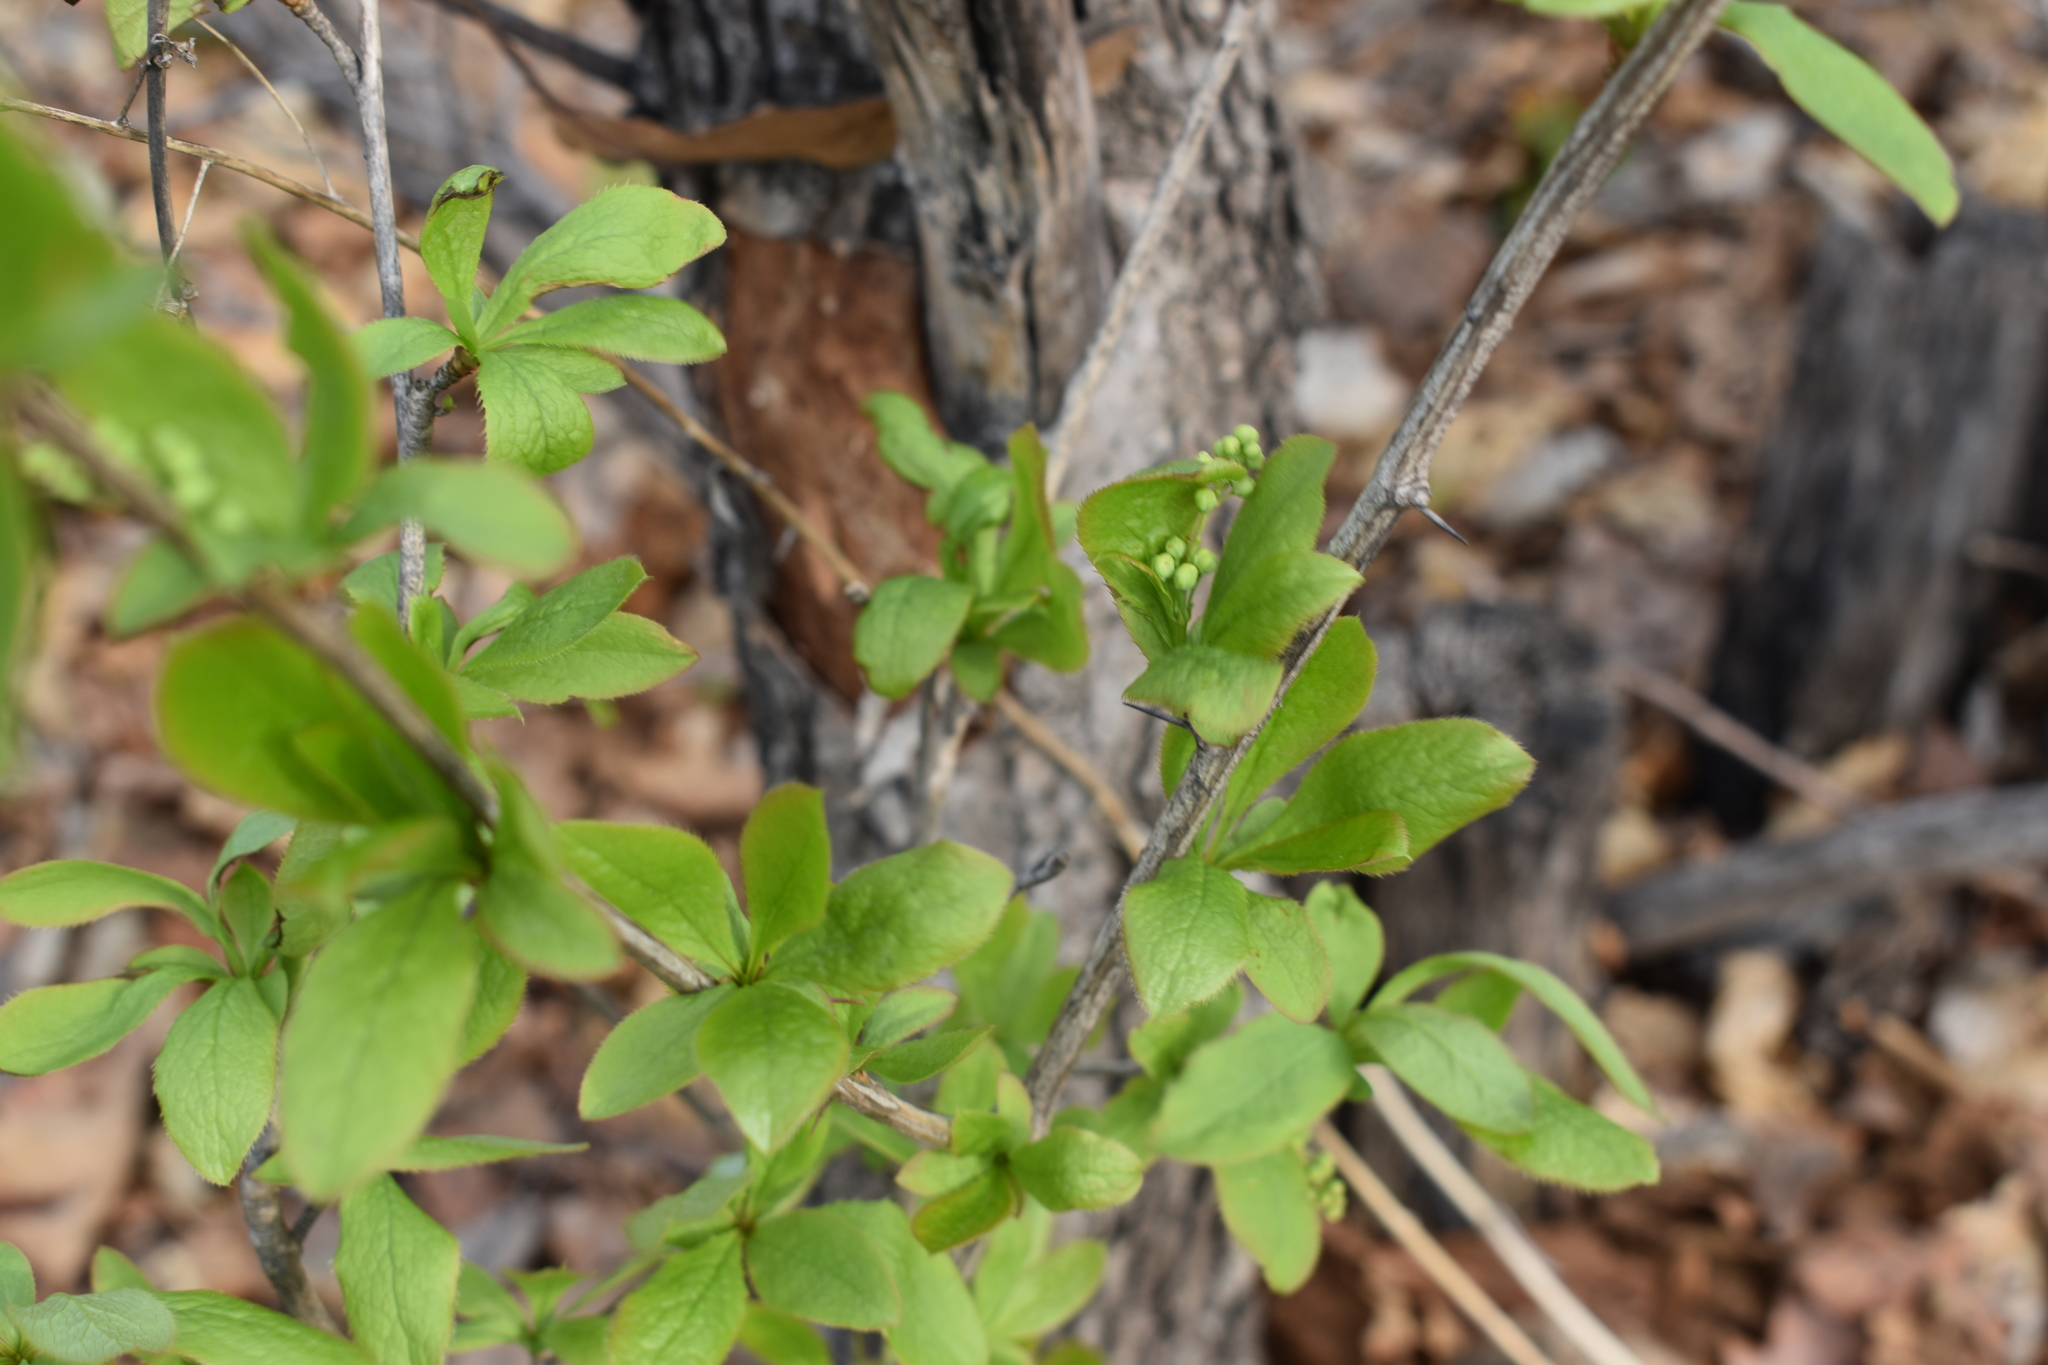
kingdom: Plantae
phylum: Tracheophyta
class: Magnoliopsida
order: Ranunculales
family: Berberidaceae
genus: Berberis
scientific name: Berberis amurensis
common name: Amur barberry
